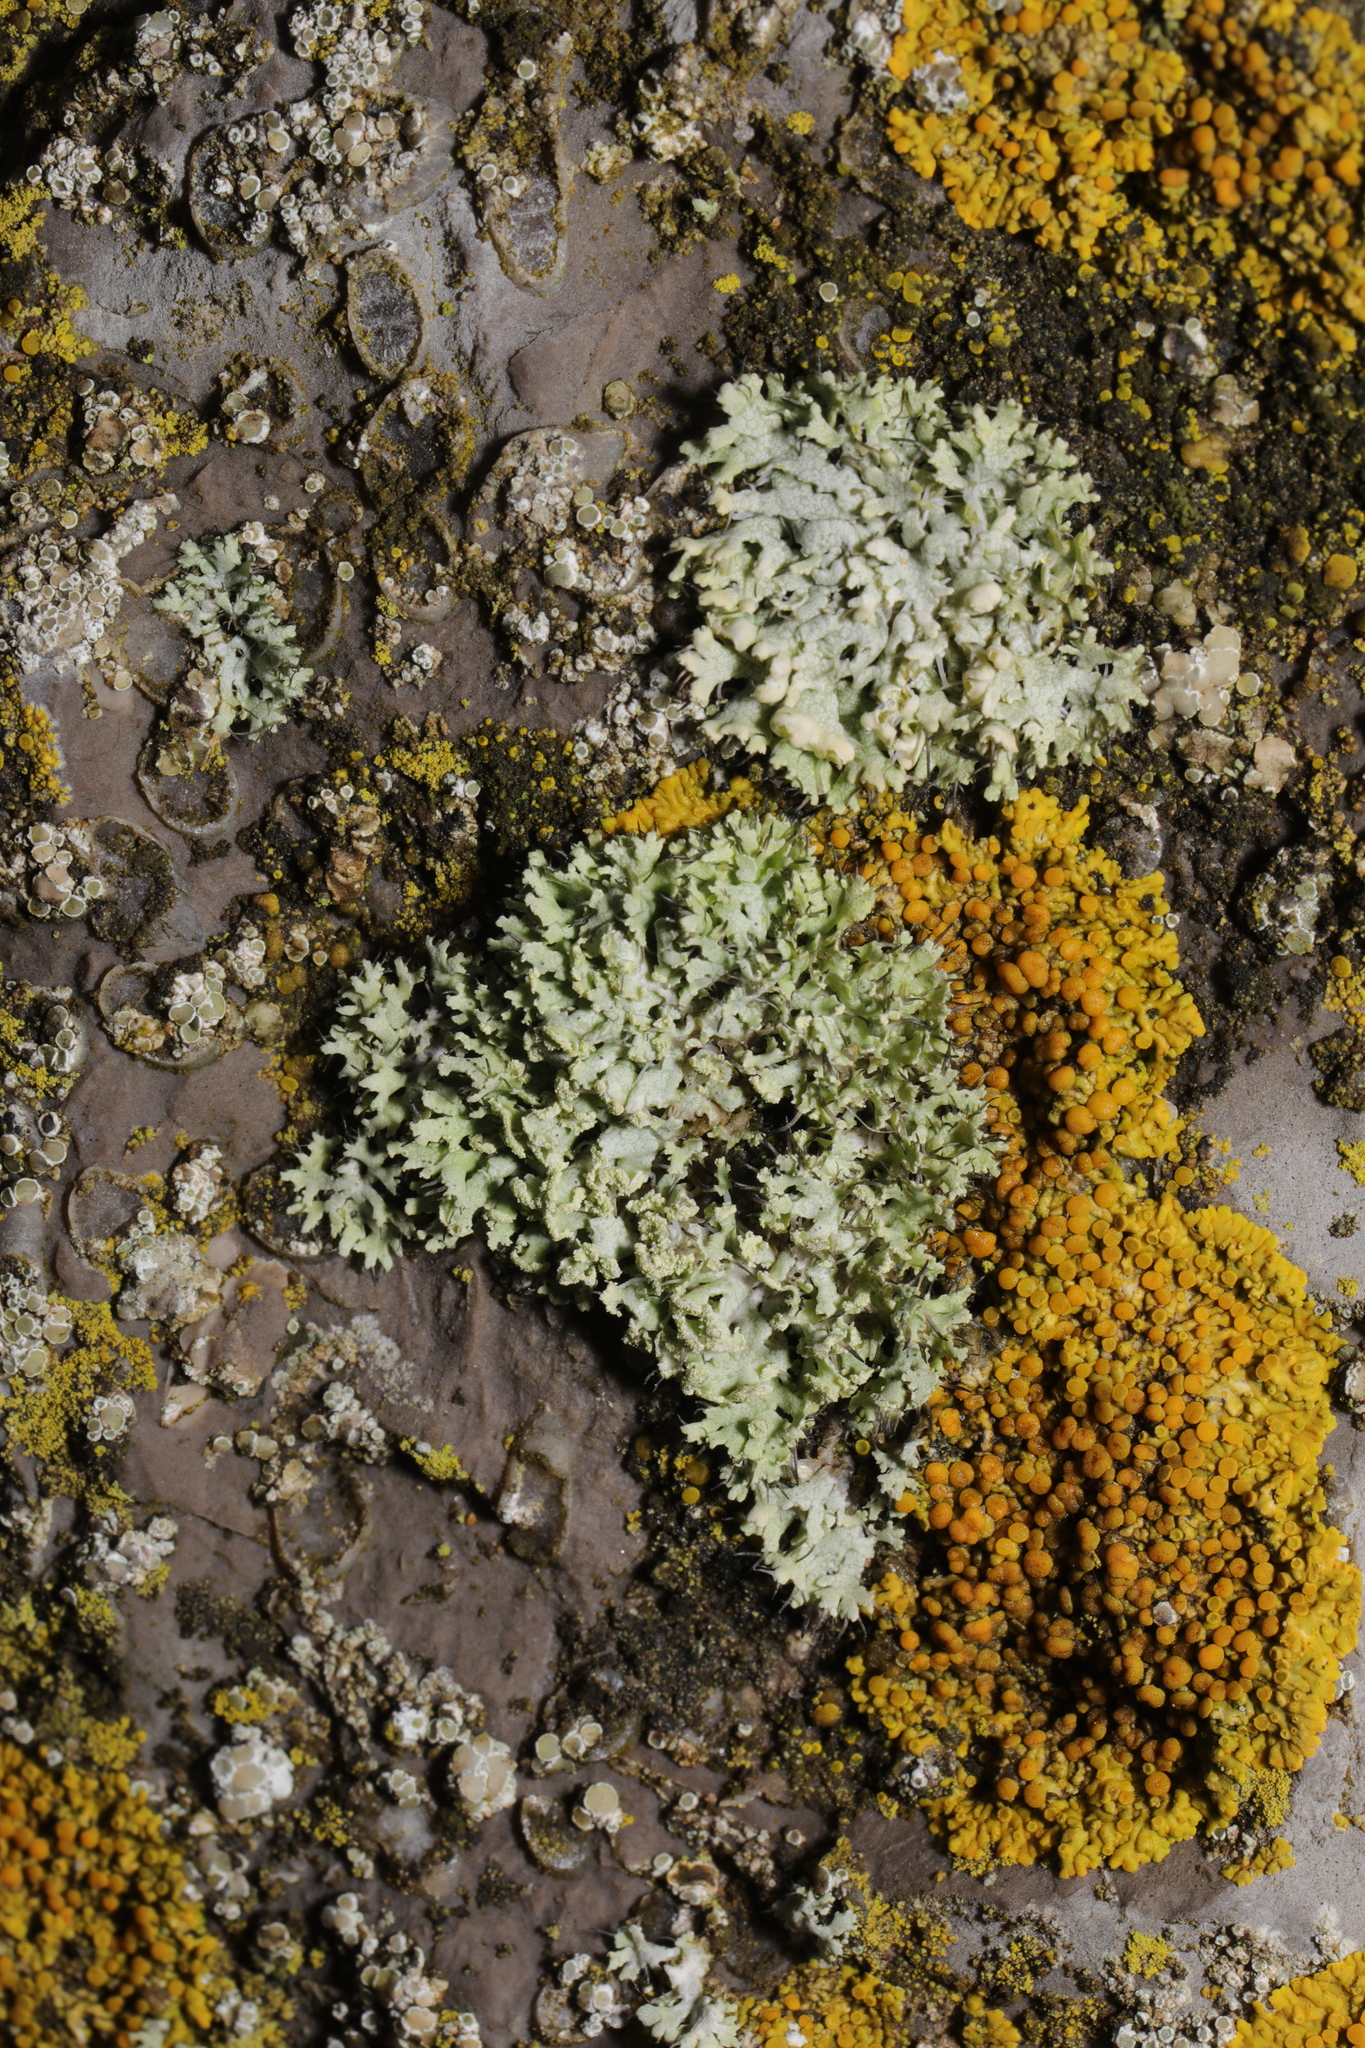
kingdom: Fungi
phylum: Ascomycota
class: Lecanoromycetes
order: Caliciales
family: Physciaceae
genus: Physcia
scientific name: Physcia tenella
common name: Fringed rosette lichen
